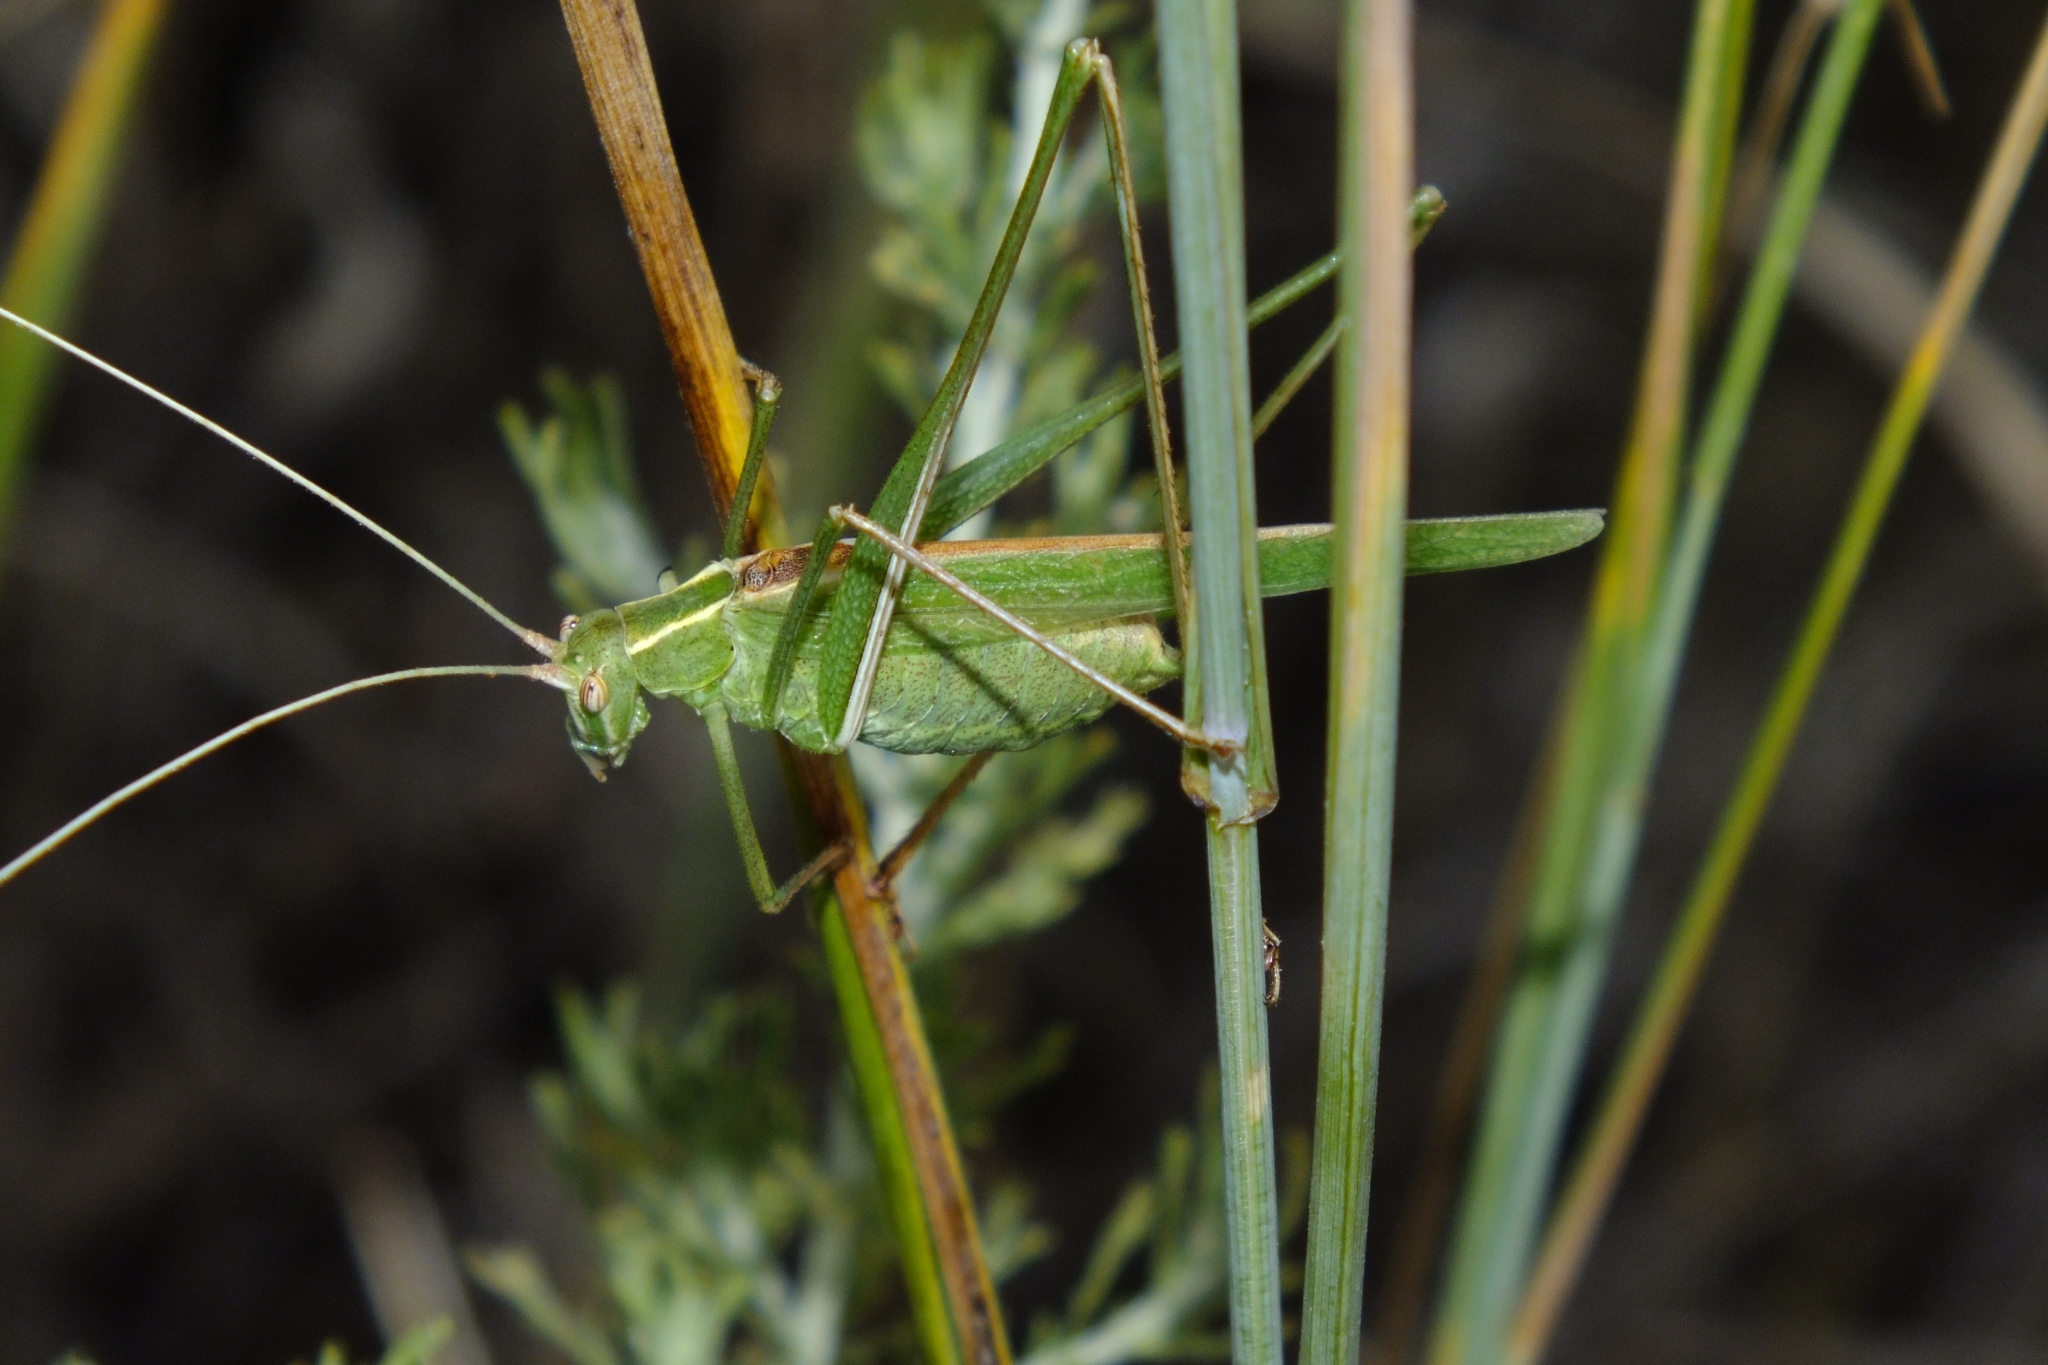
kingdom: Animalia
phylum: Arthropoda
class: Insecta
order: Orthoptera
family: Tettigoniidae
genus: Tylopsis
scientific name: Tylopsis lilifolia
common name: Lily bush-cricket
